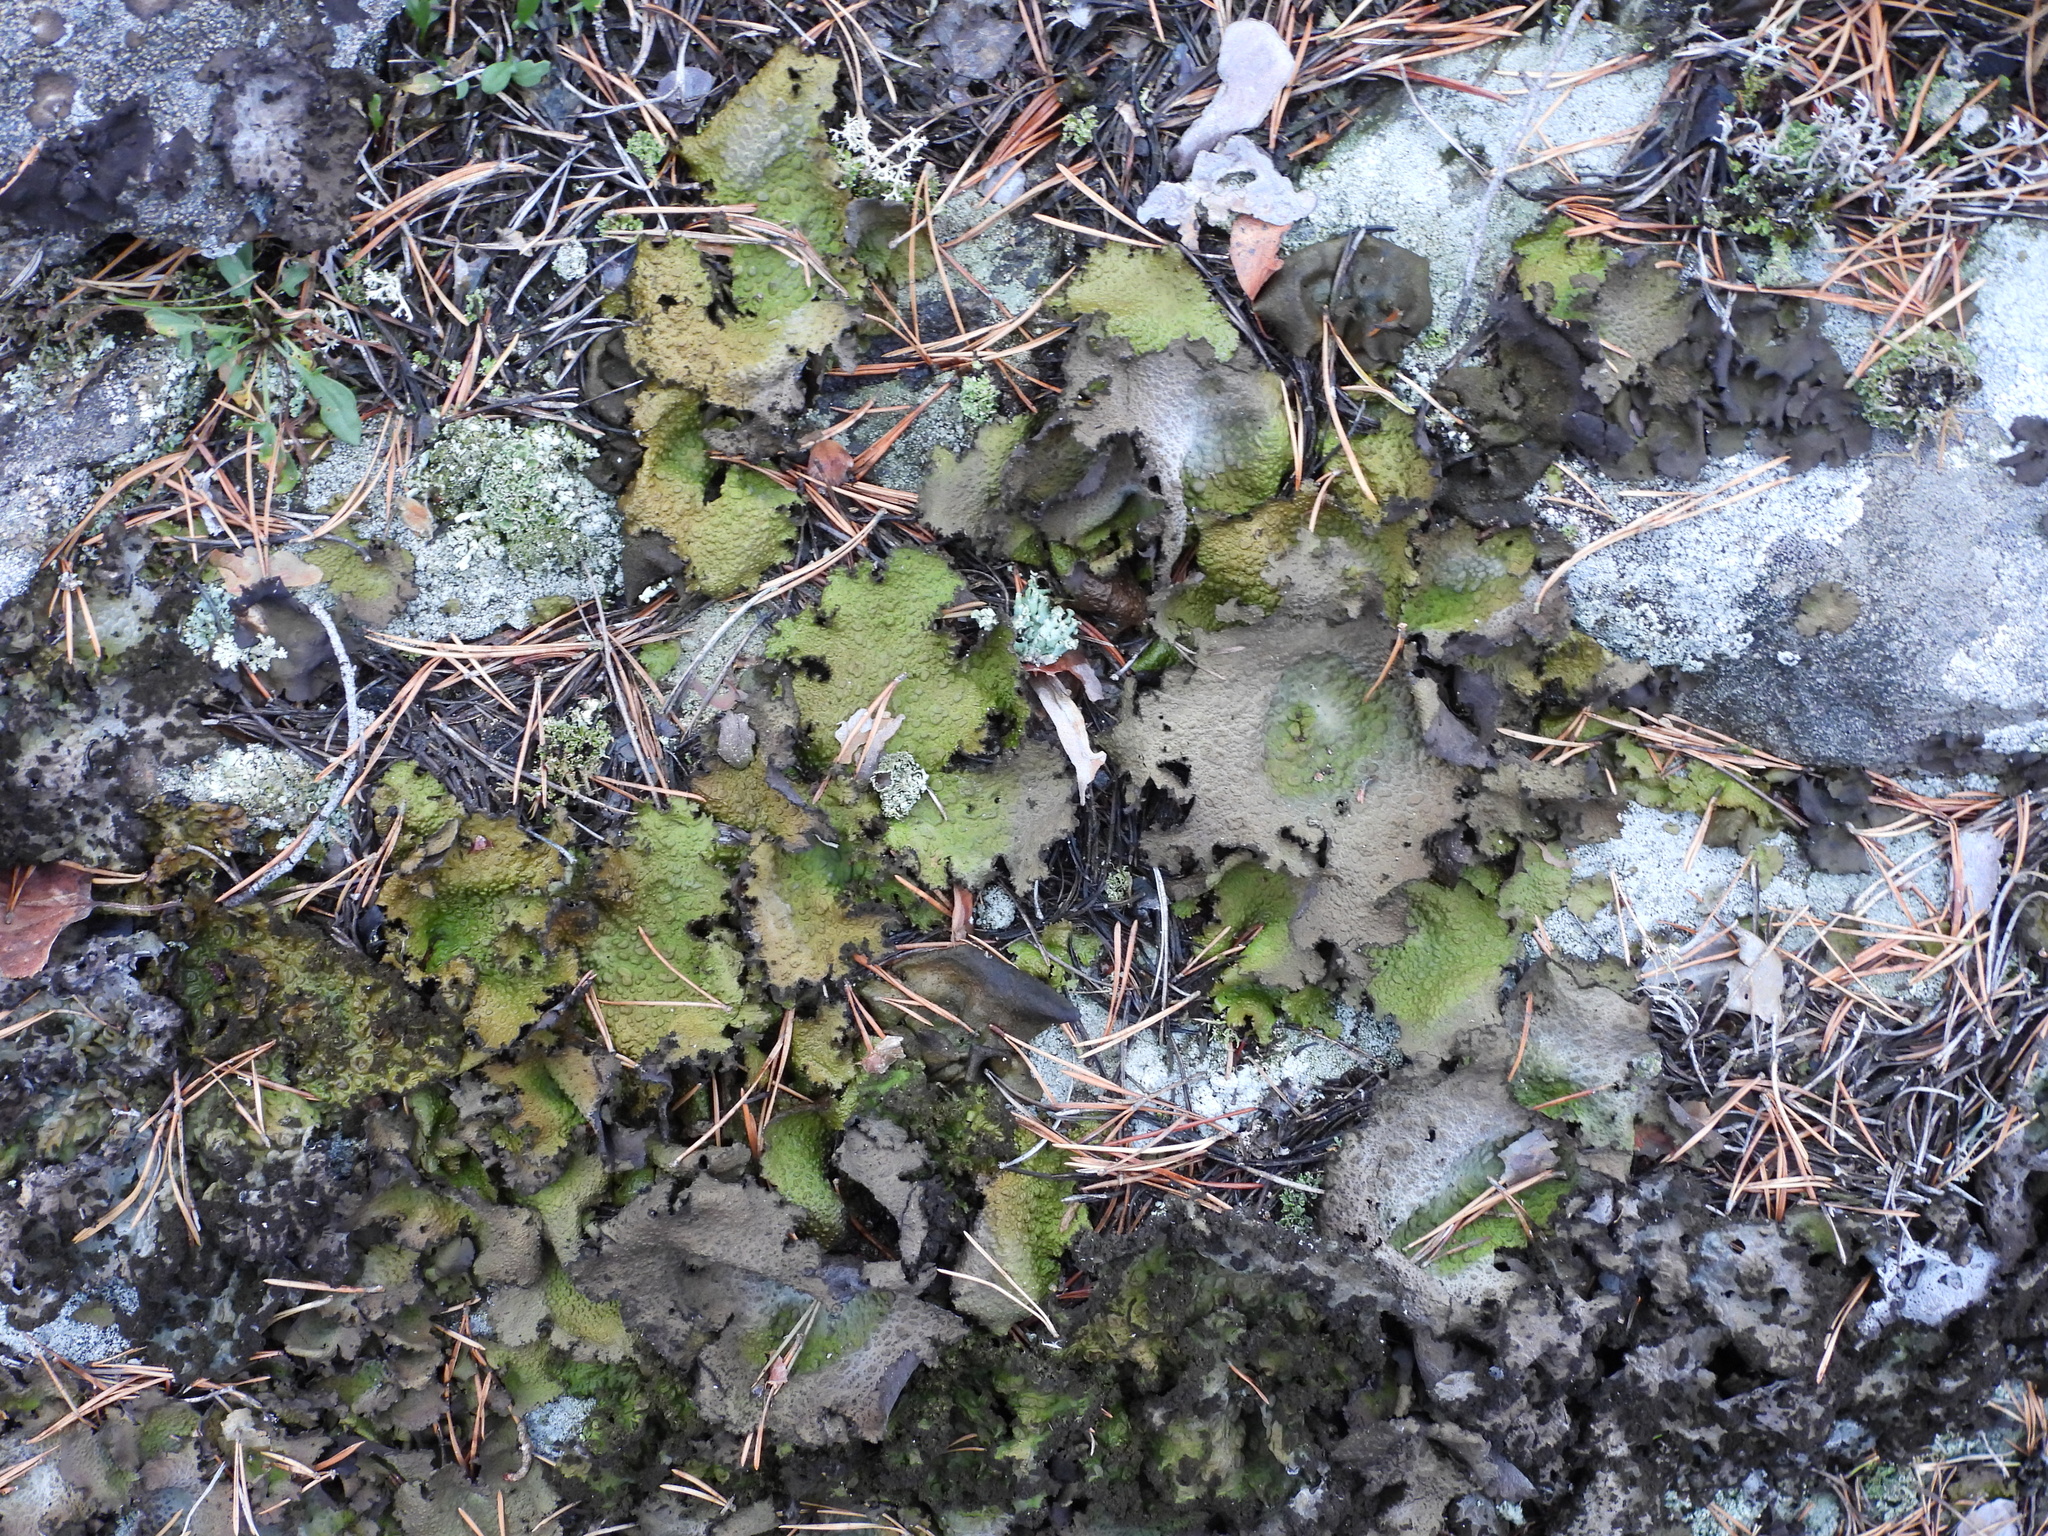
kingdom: Fungi
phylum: Ascomycota
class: Lecanoromycetes
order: Umbilicariales
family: Umbilicariaceae
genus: Lasallia
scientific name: Lasallia pustulata
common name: Blistered toadskin lichen
